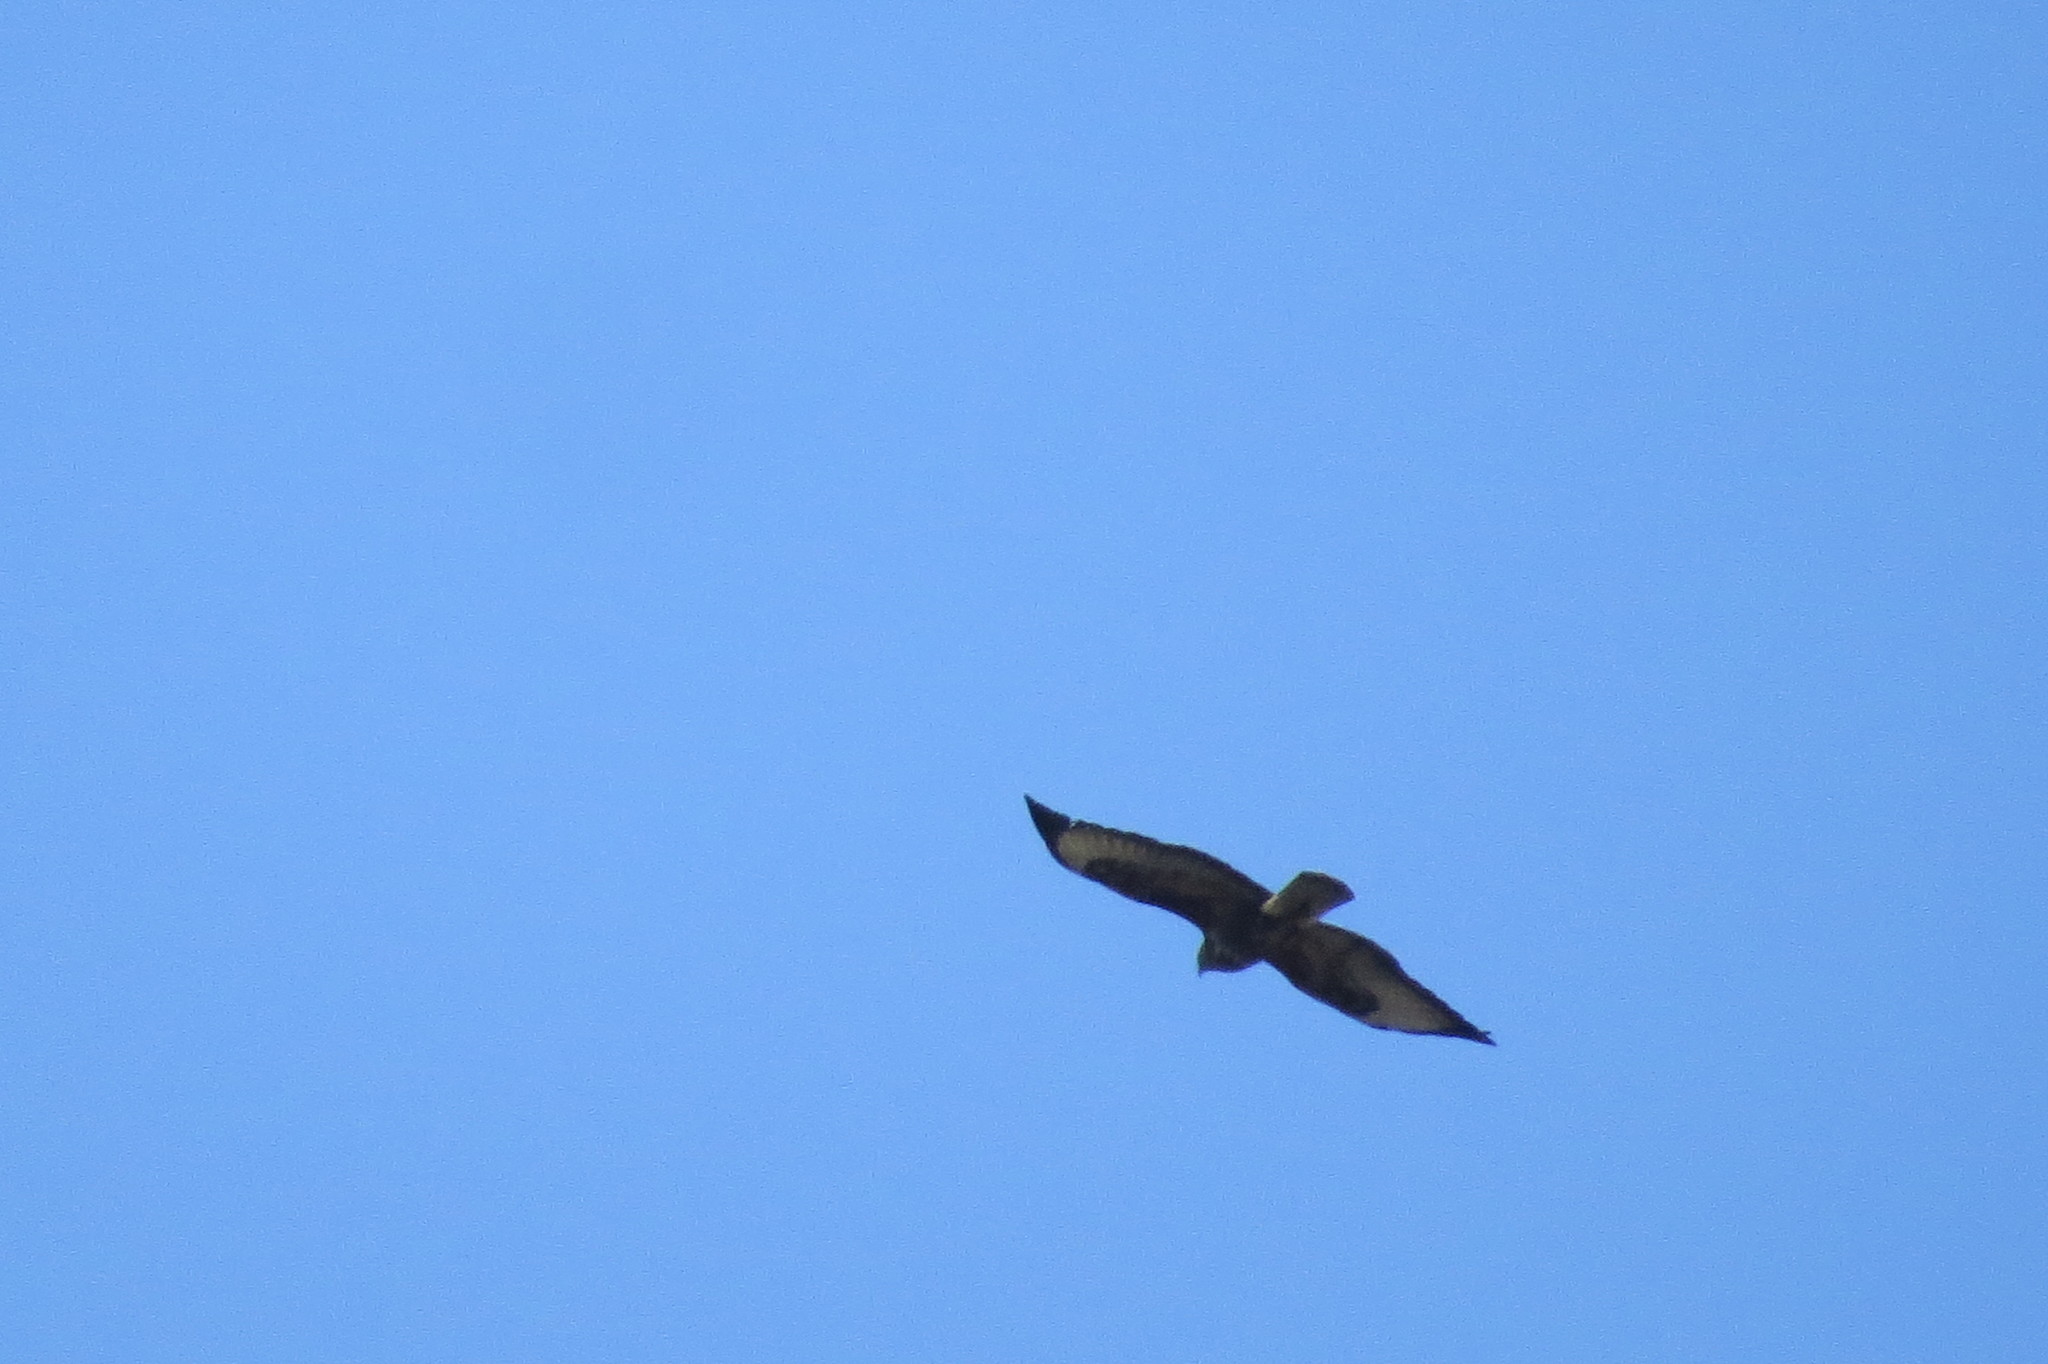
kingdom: Animalia
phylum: Chordata
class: Aves
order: Accipitriformes
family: Accipitridae
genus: Buteo
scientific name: Buteo buteo
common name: Common buzzard
